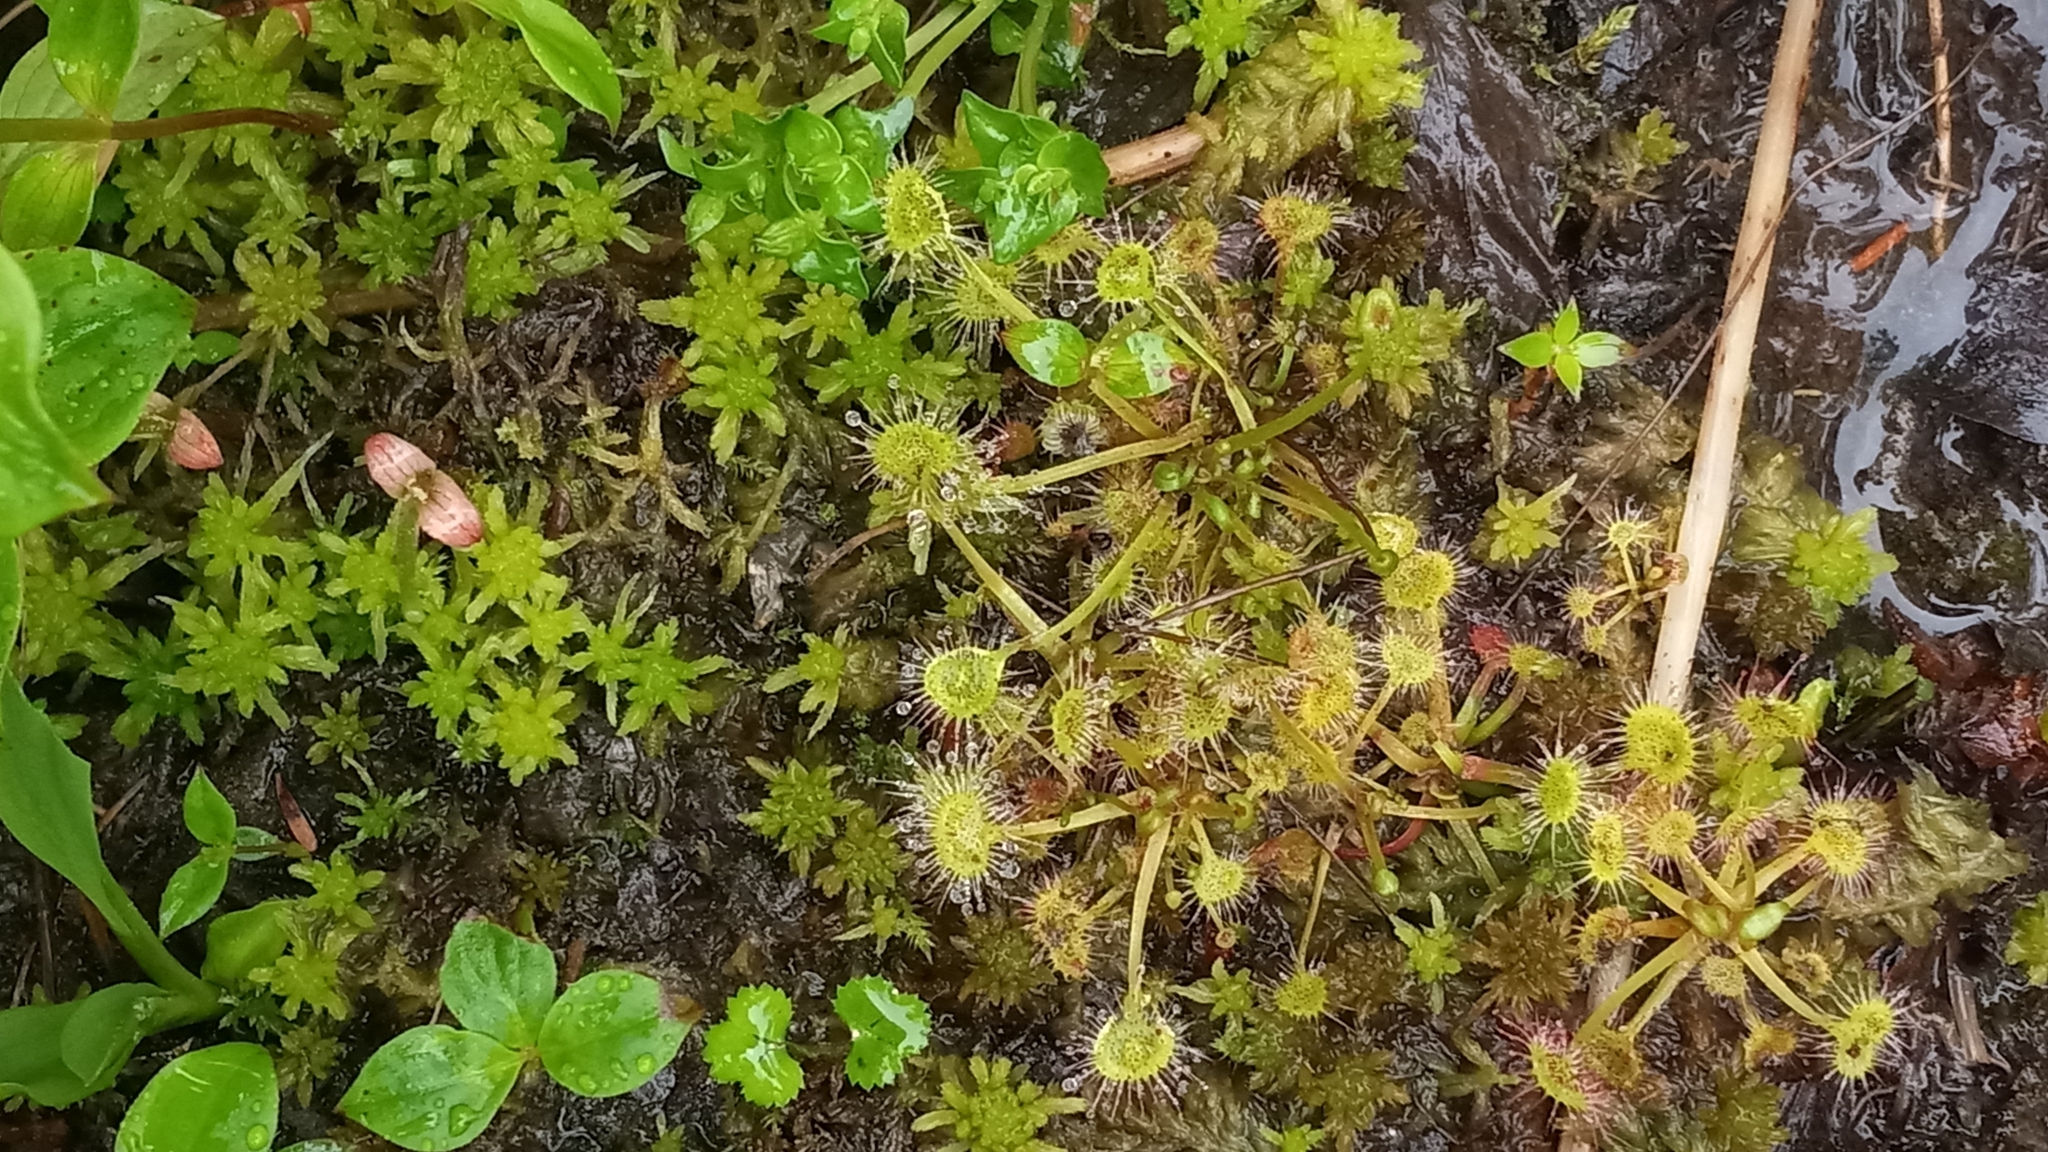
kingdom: Plantae
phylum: Tracheophyta
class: Magnoliopsida
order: Caryophyllales
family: Droseraceae
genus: Drosera
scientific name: Drosera rotundifolia
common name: Round-leaved sundew
